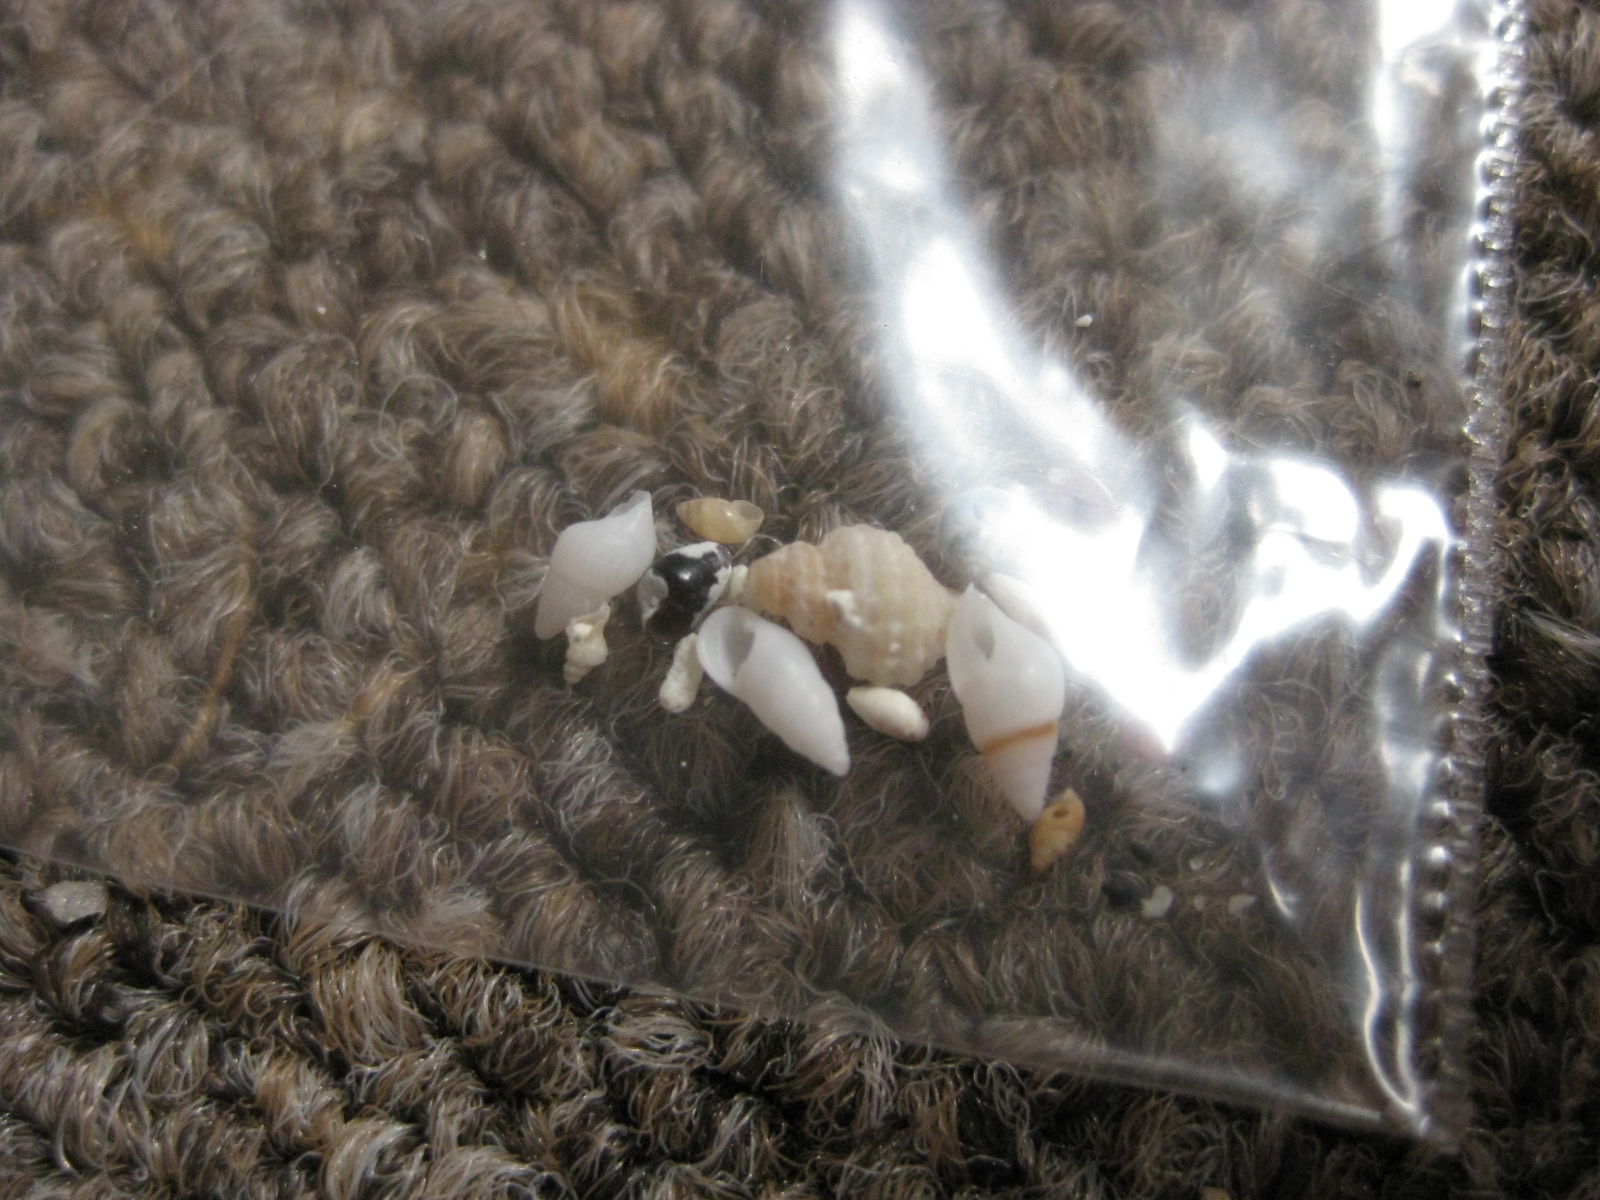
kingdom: Animalia
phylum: Mollusca
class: Gastropoda
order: Littorinimorpha
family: Rissoinidae
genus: Rissoina
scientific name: Rissoina zonata
